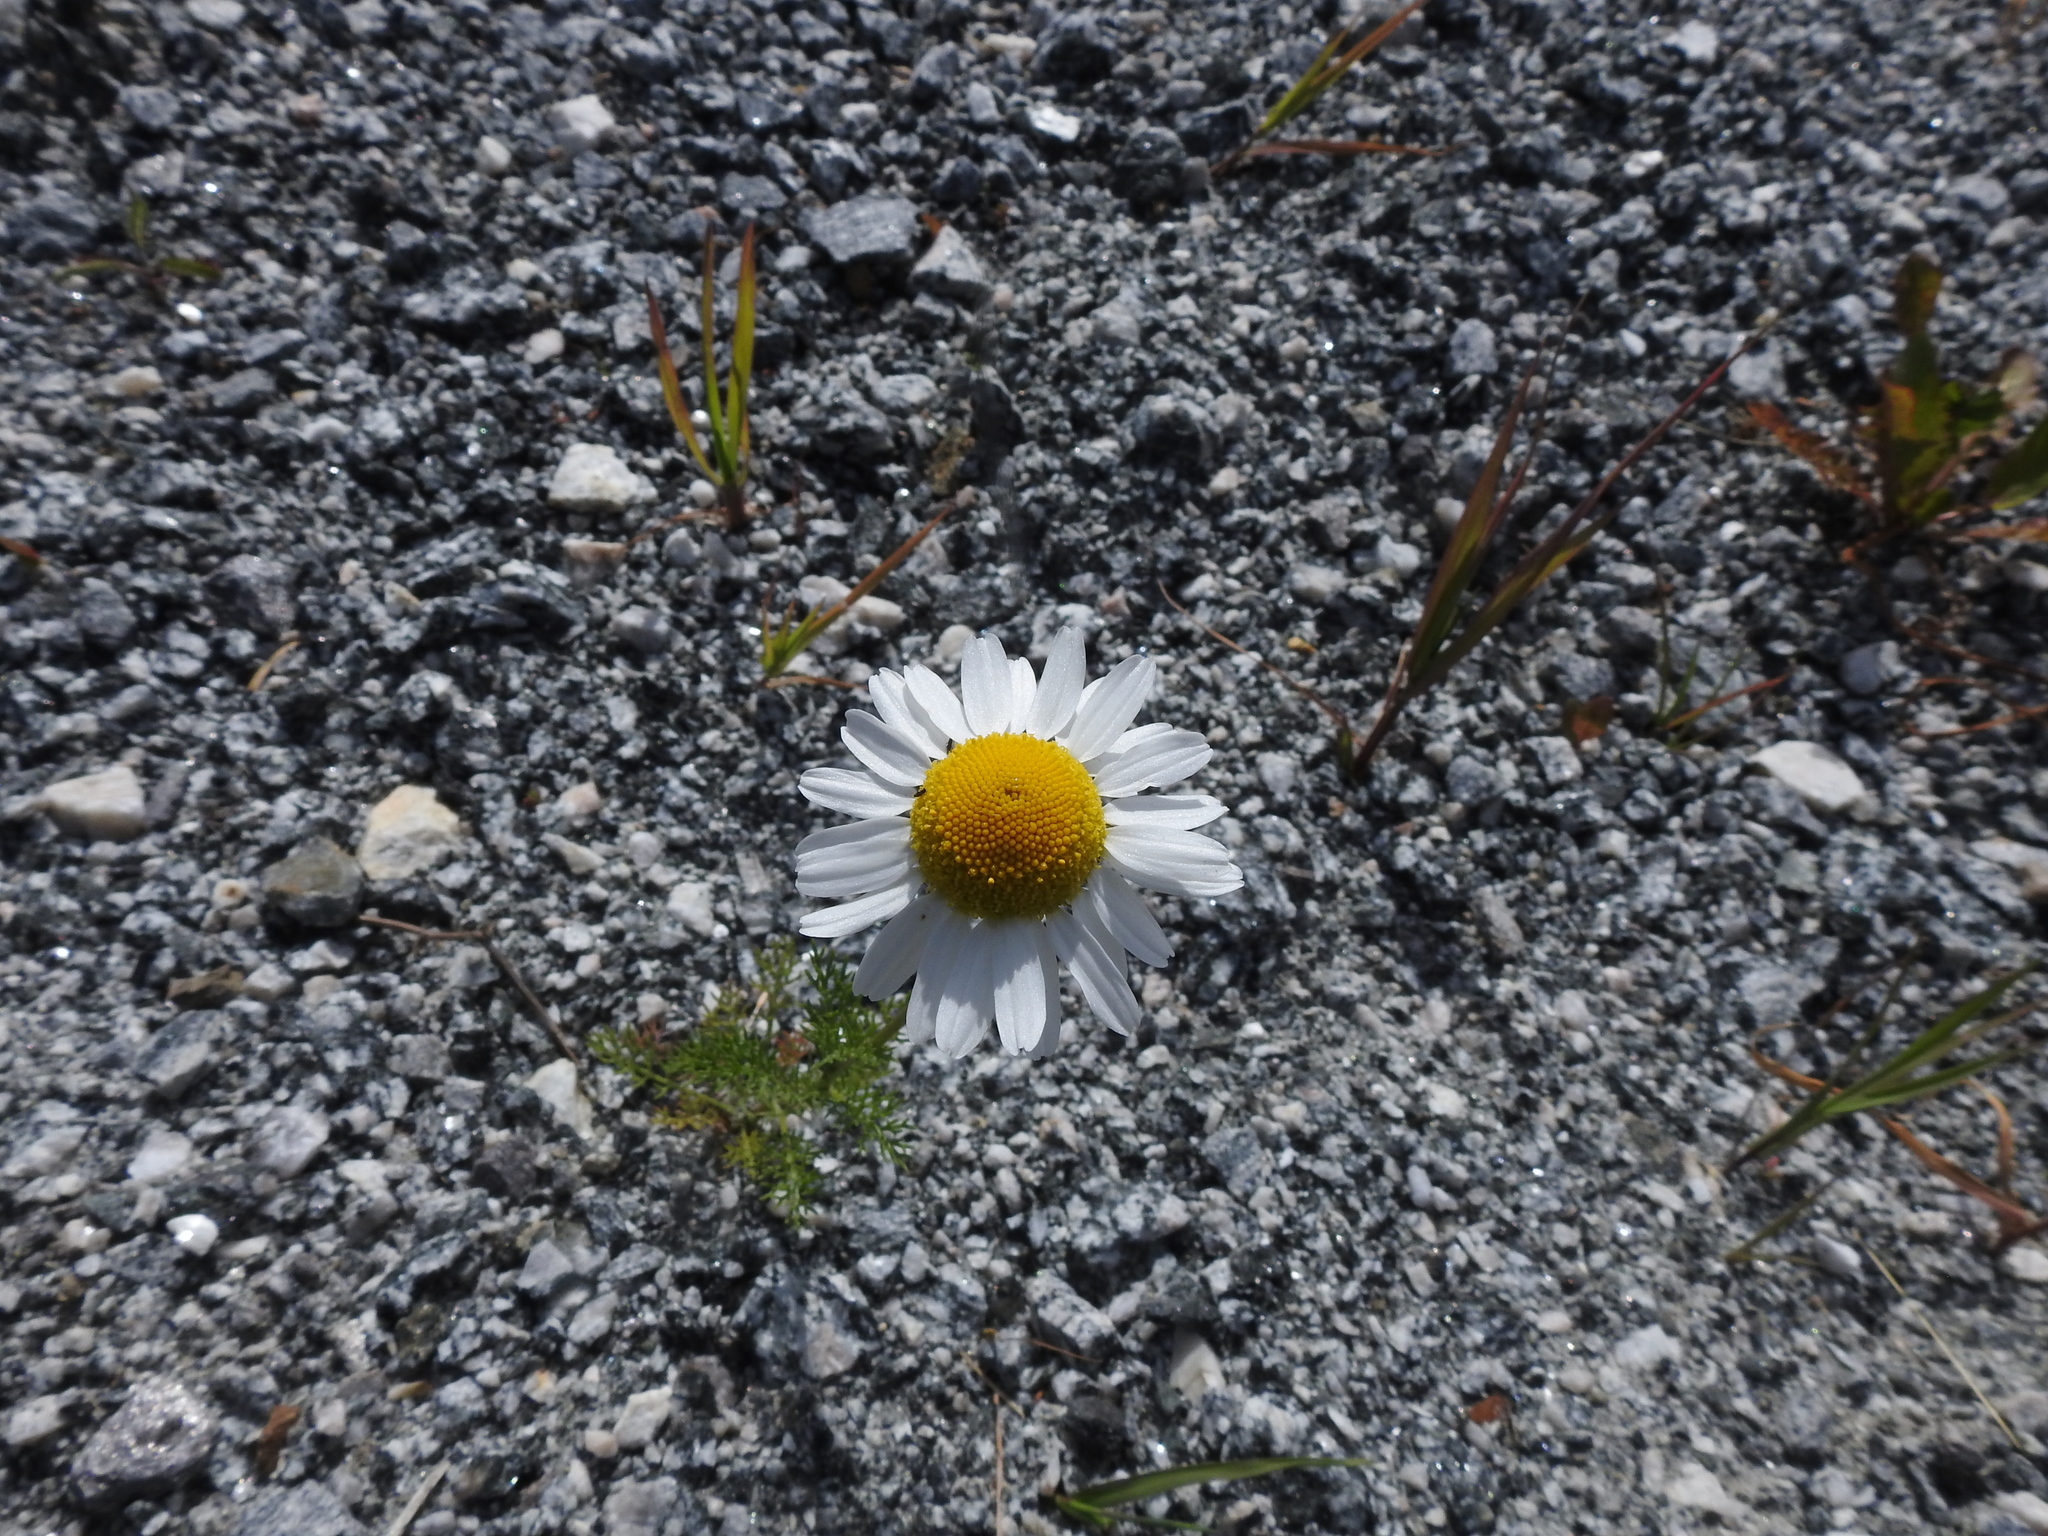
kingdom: Plantae
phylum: Tracheophyta
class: Magnoliopsida
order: Asterales
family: Asteraceae
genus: Tripleurospermum
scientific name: Tripleurospermum maritimum
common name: Sea mayweed
